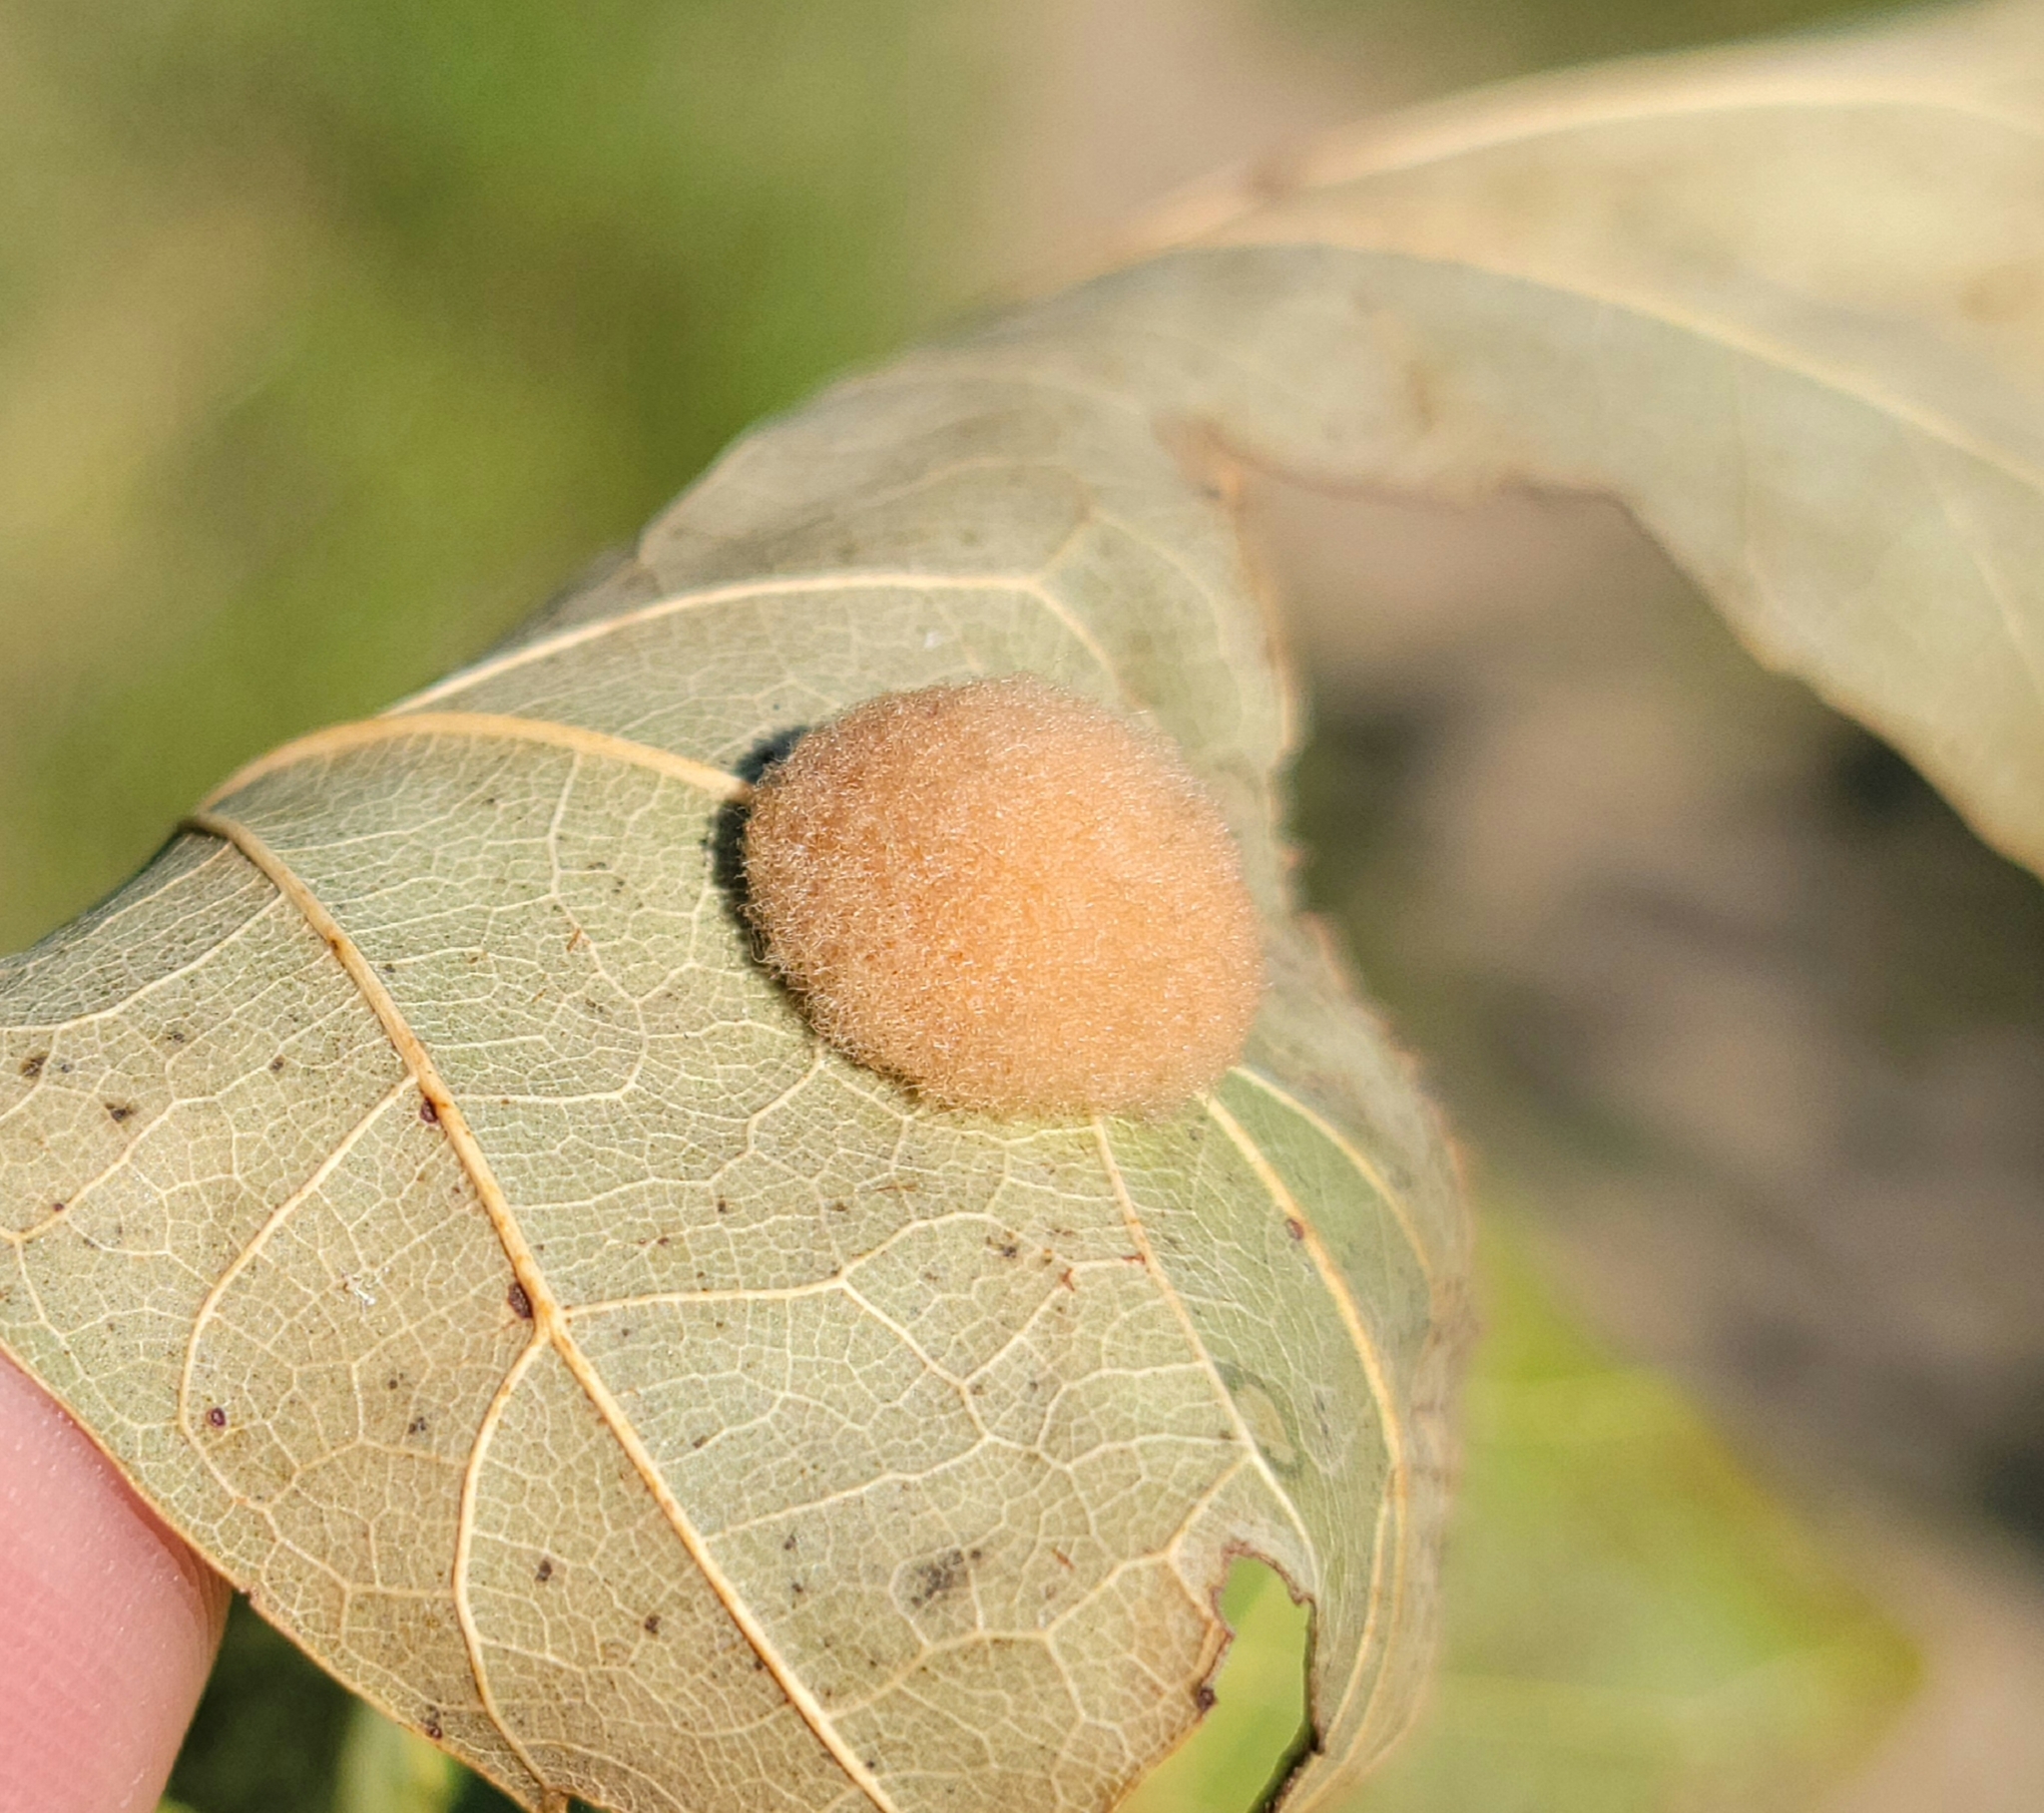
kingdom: Animalia
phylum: Arthropoda
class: Insecta
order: Hymenoptera
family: Cynipidae
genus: Callirhytis
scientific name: Callirhytis
